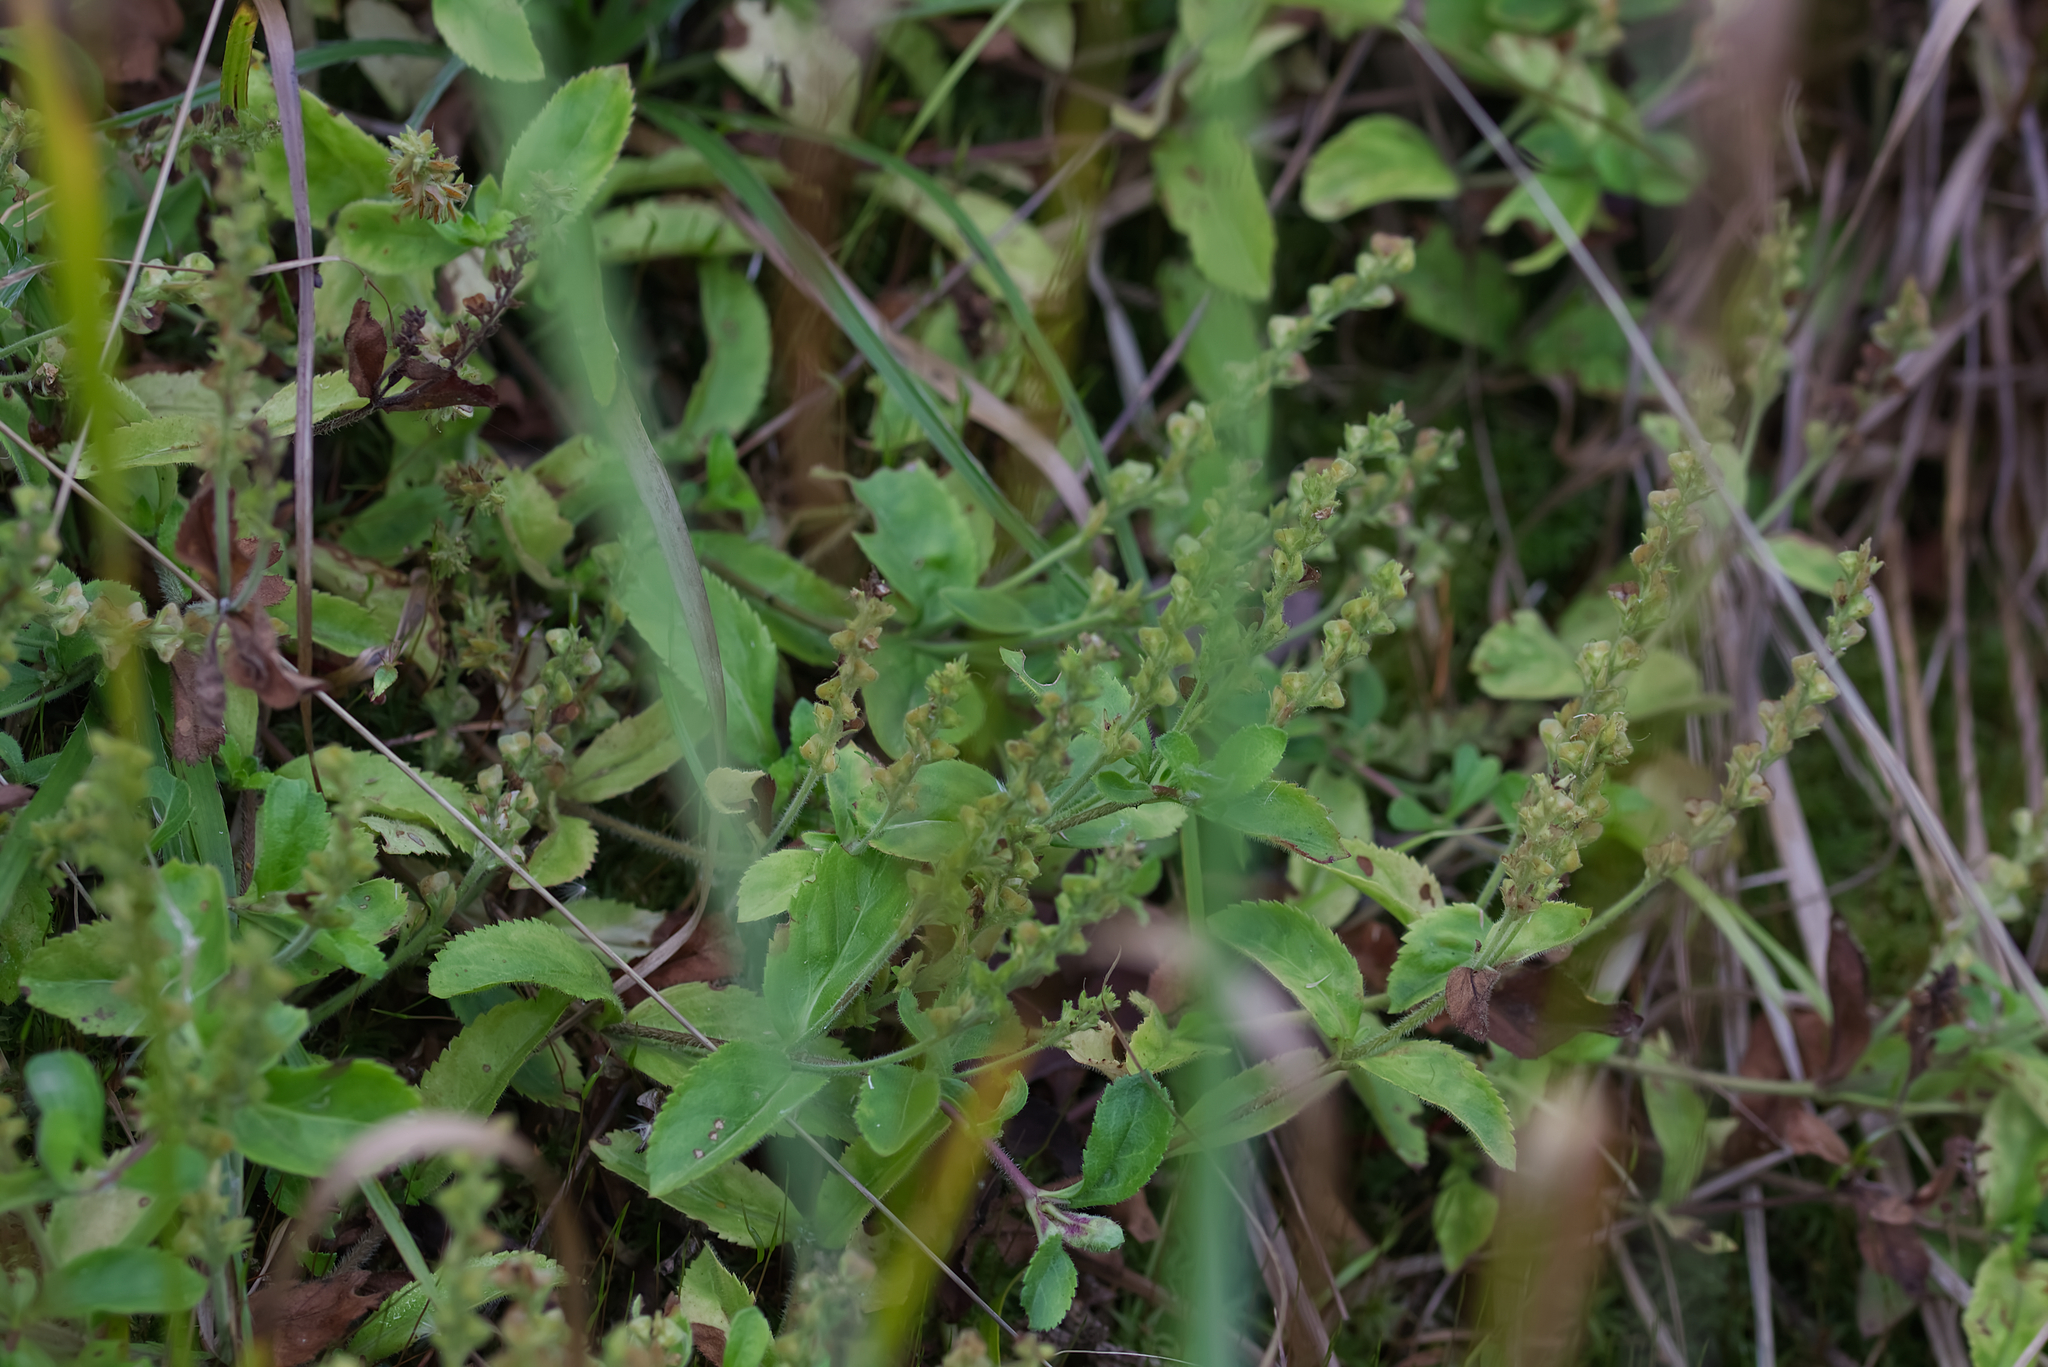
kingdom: Plantae
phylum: Tracheophyta
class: Magnoliopsida
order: Lamiales
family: Plantaginaceae
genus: Veronica
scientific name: Veronica officinalis
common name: Common speedwell
